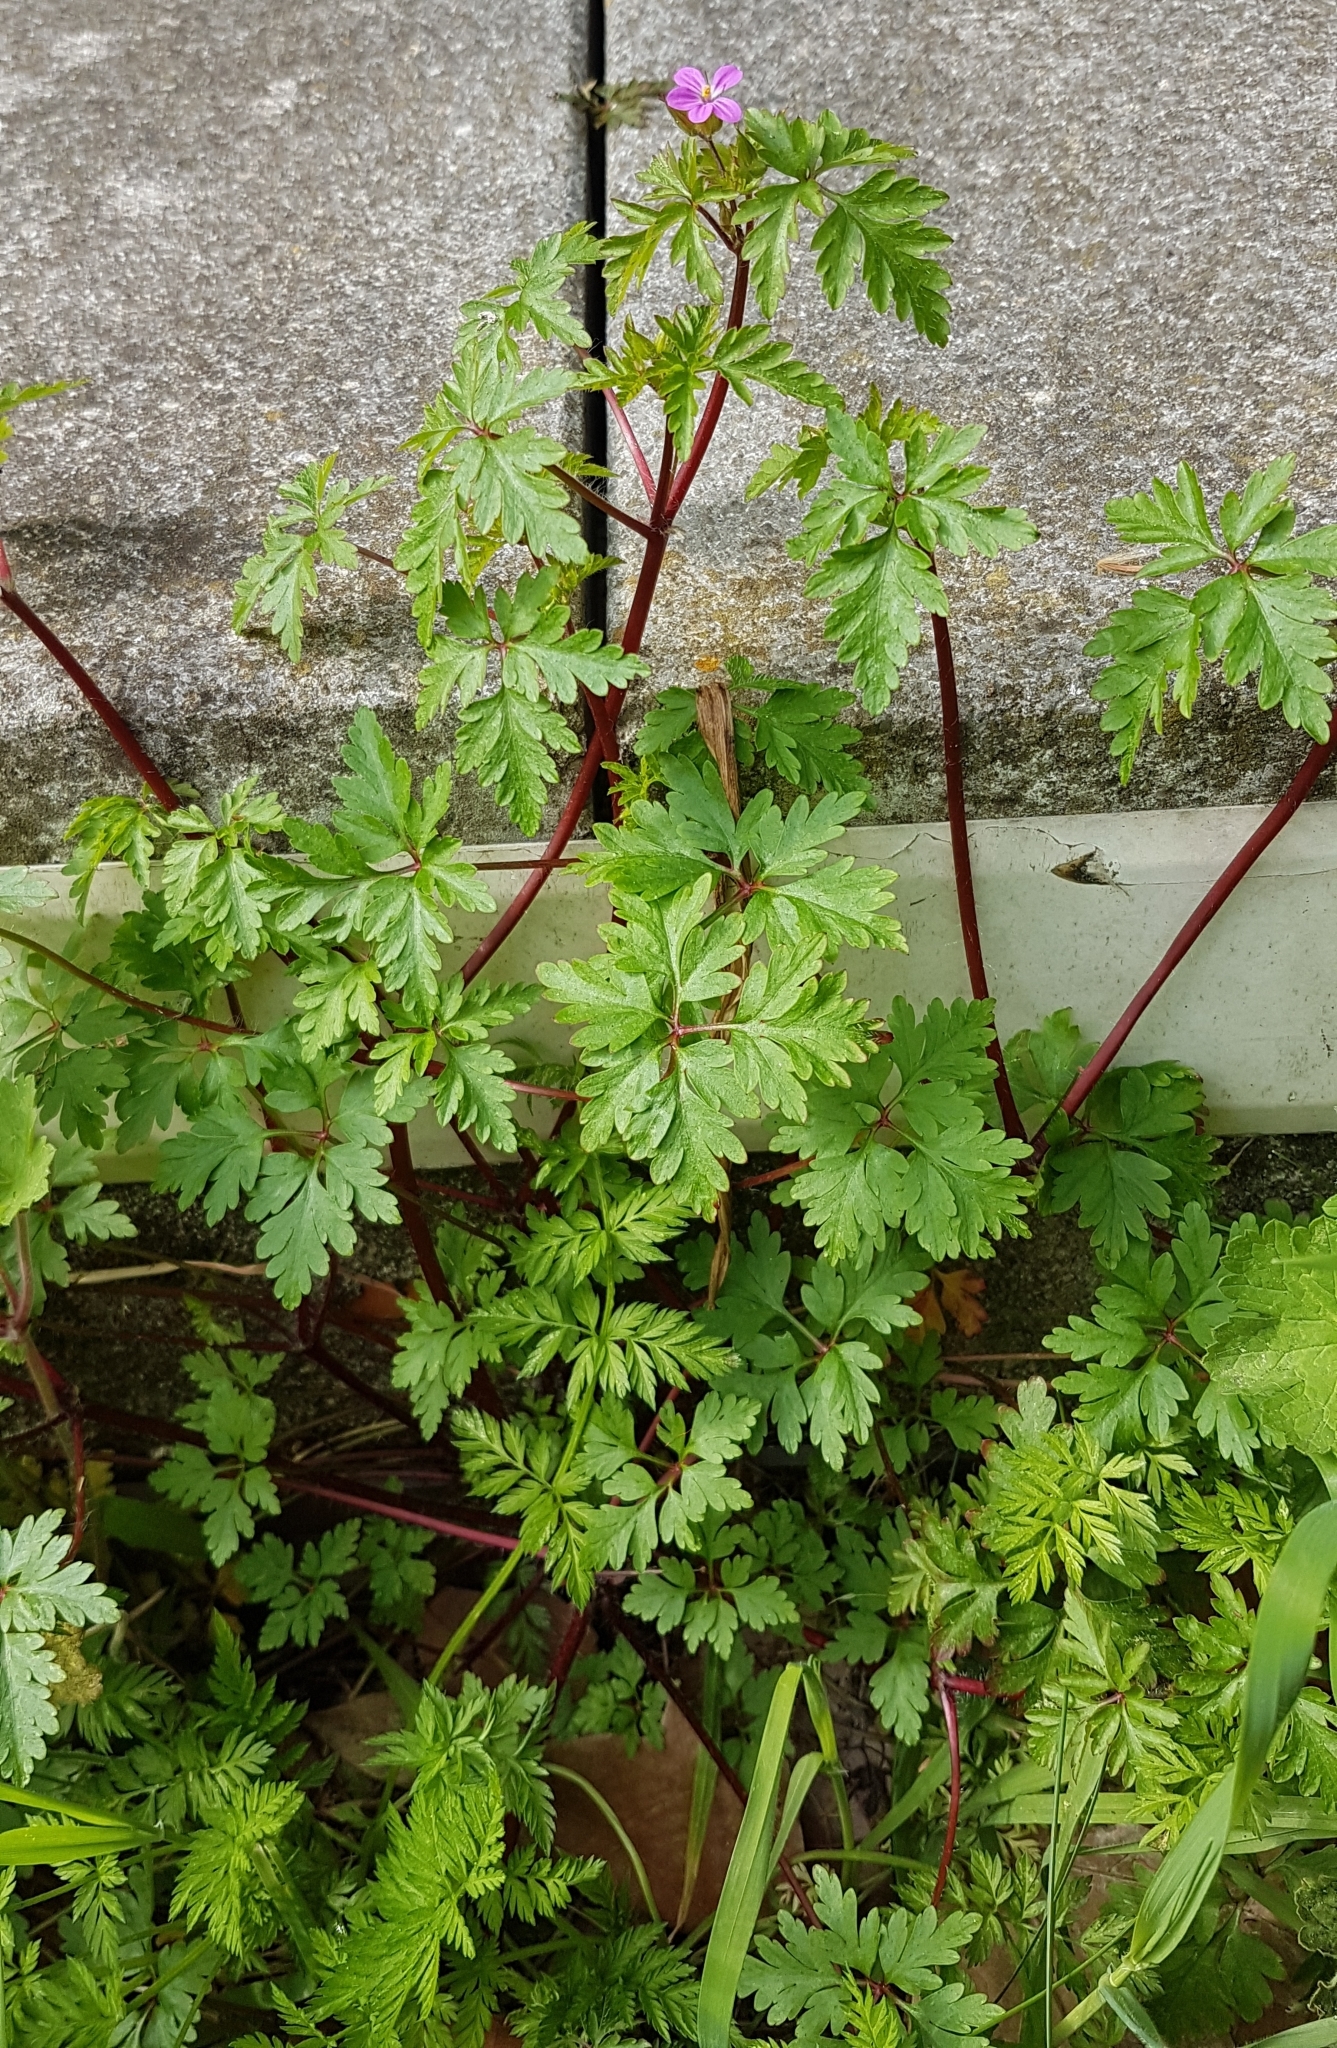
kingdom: Plantae
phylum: Tracheophyta
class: Magnoliopsida
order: Geraniales
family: Geraniaceae
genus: Geranium
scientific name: Geranium purpureum
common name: Little-robin
